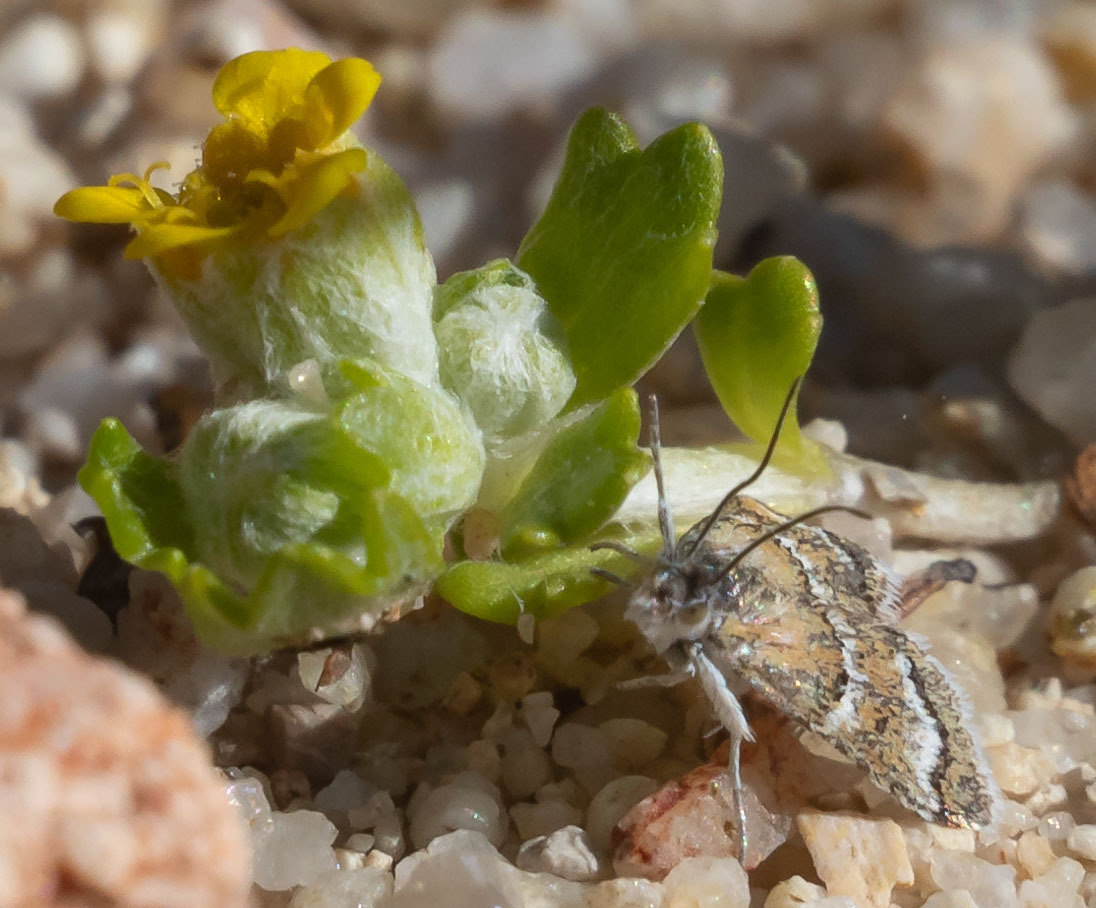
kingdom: Animalia
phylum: Arthropoda
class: Insecta
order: Lepidoptera
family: Crambidae
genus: Nannobotys
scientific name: Nannobotys commortalis
